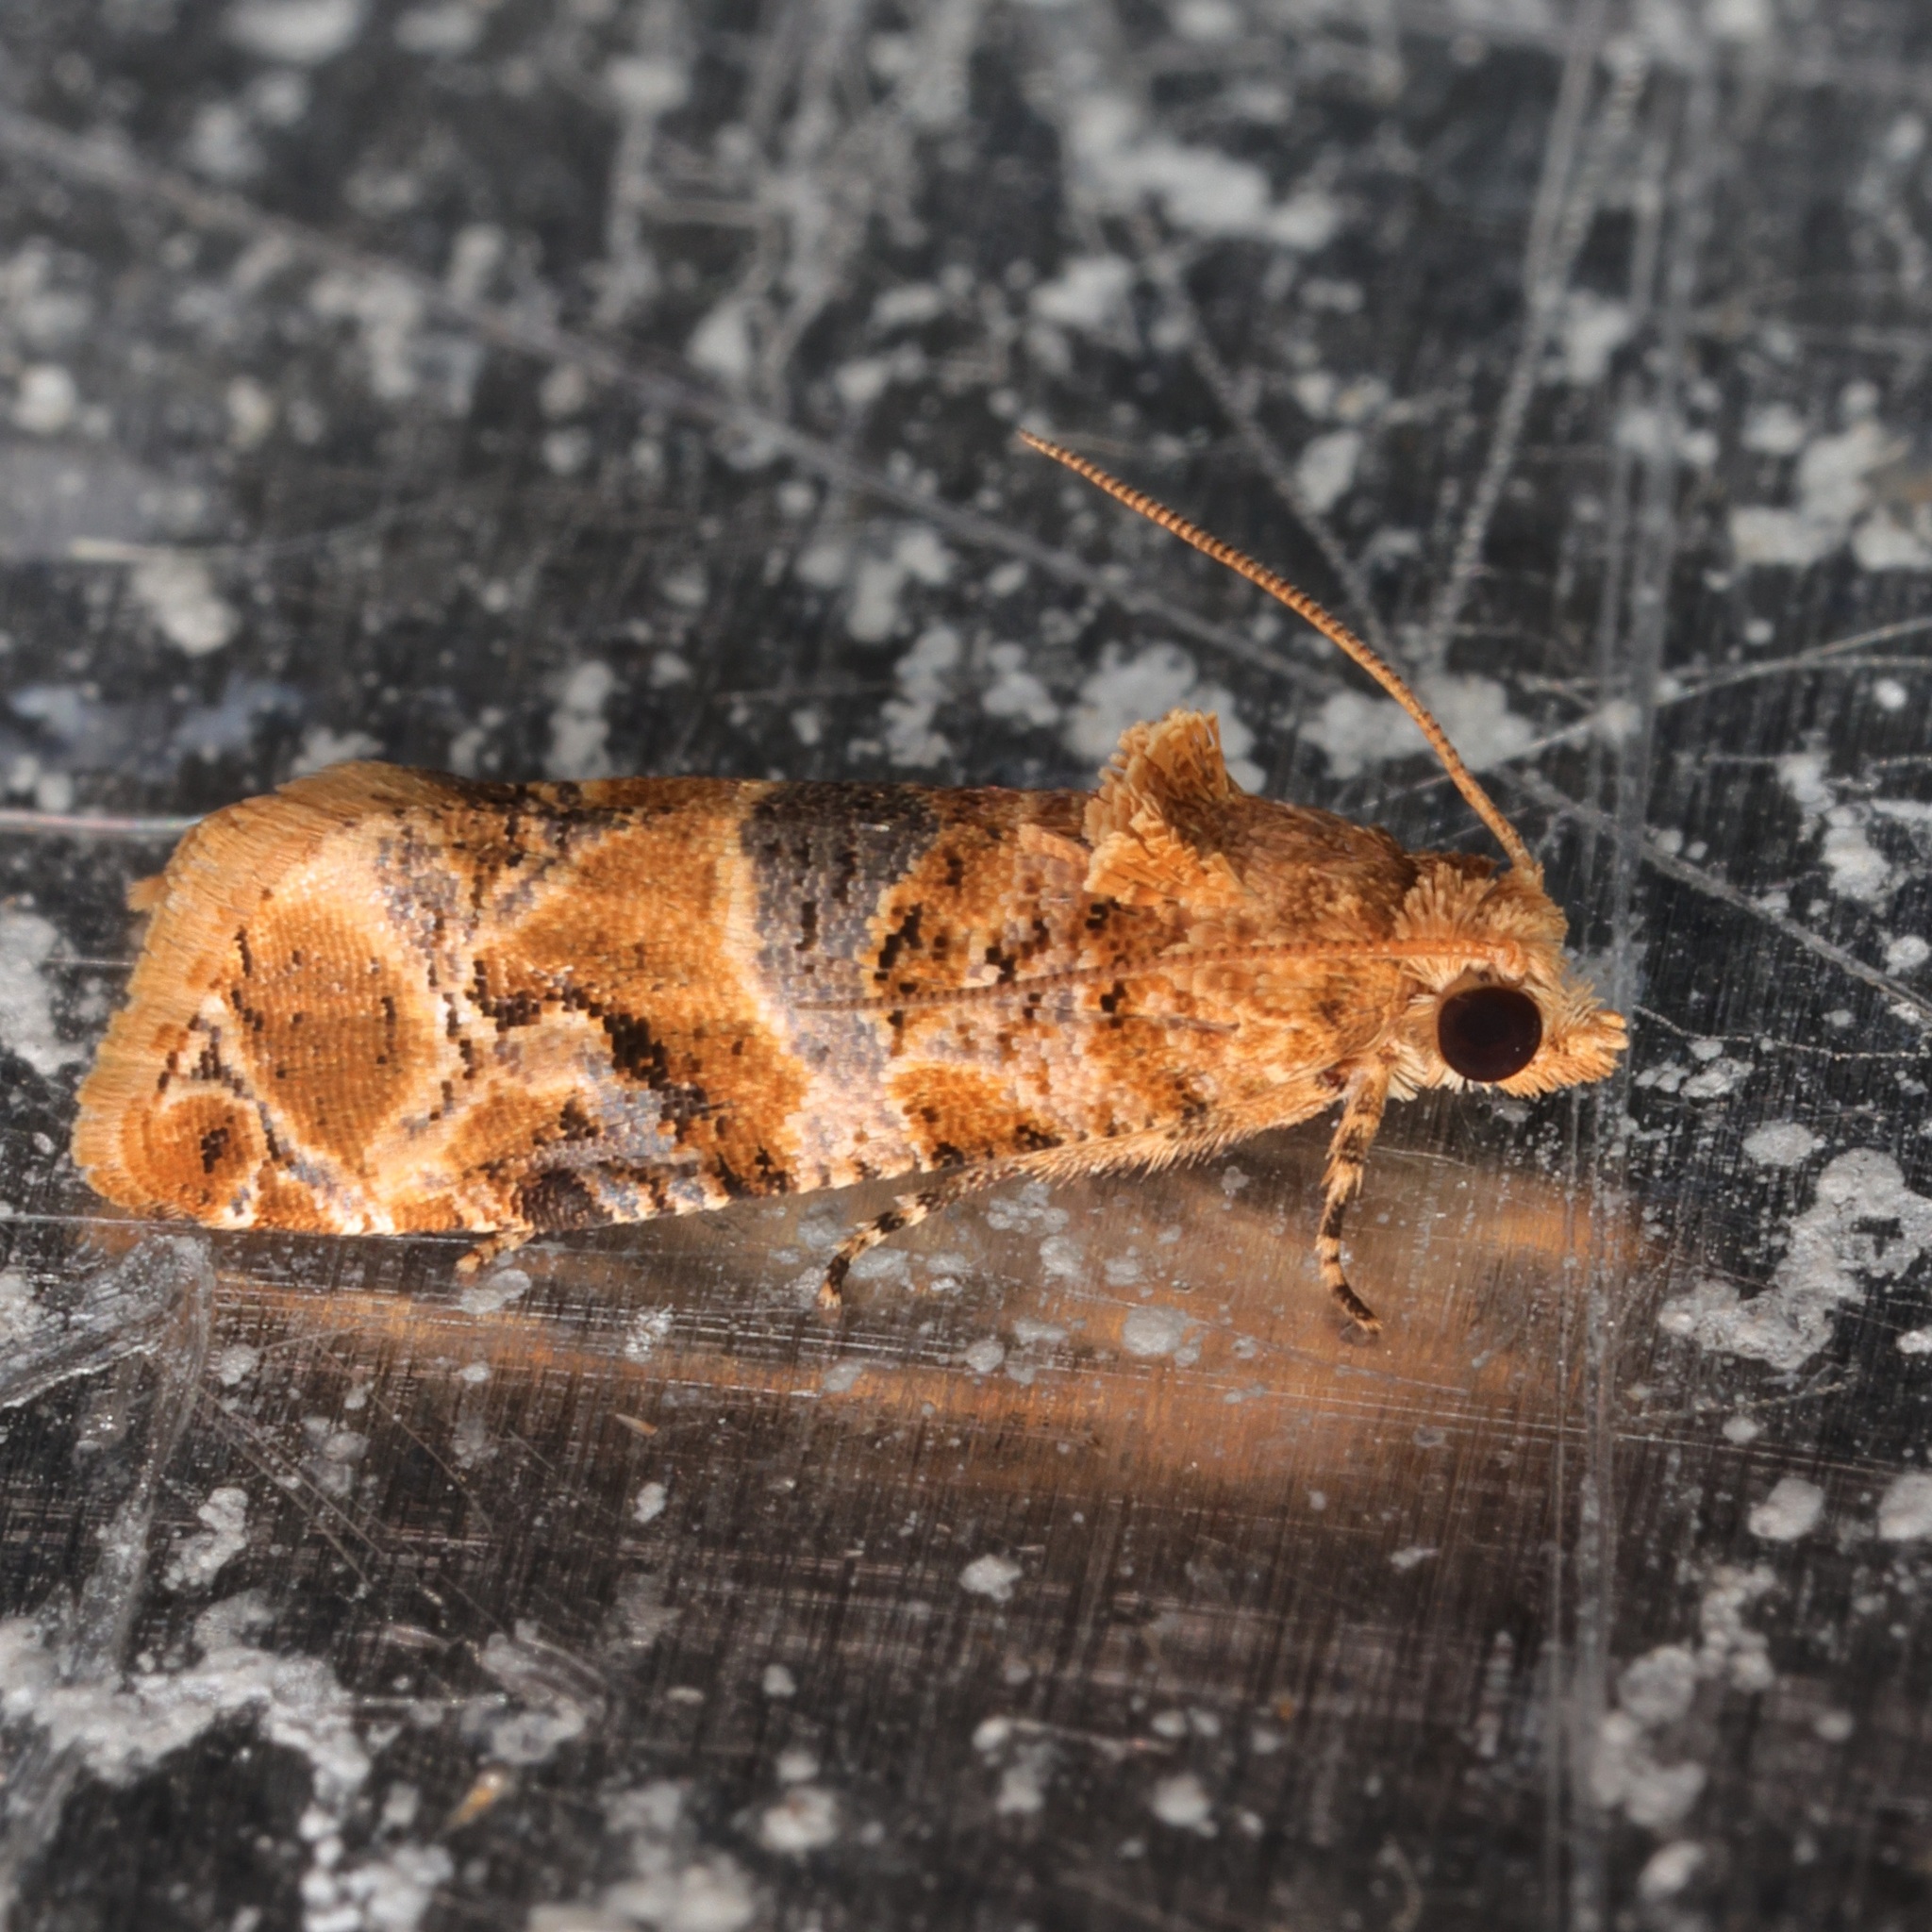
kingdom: Animalia
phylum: Arthropoda
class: Insecta
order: Lepidoptera
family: Tortricidae
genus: Lobesia
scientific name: Lobesia aeolopa
